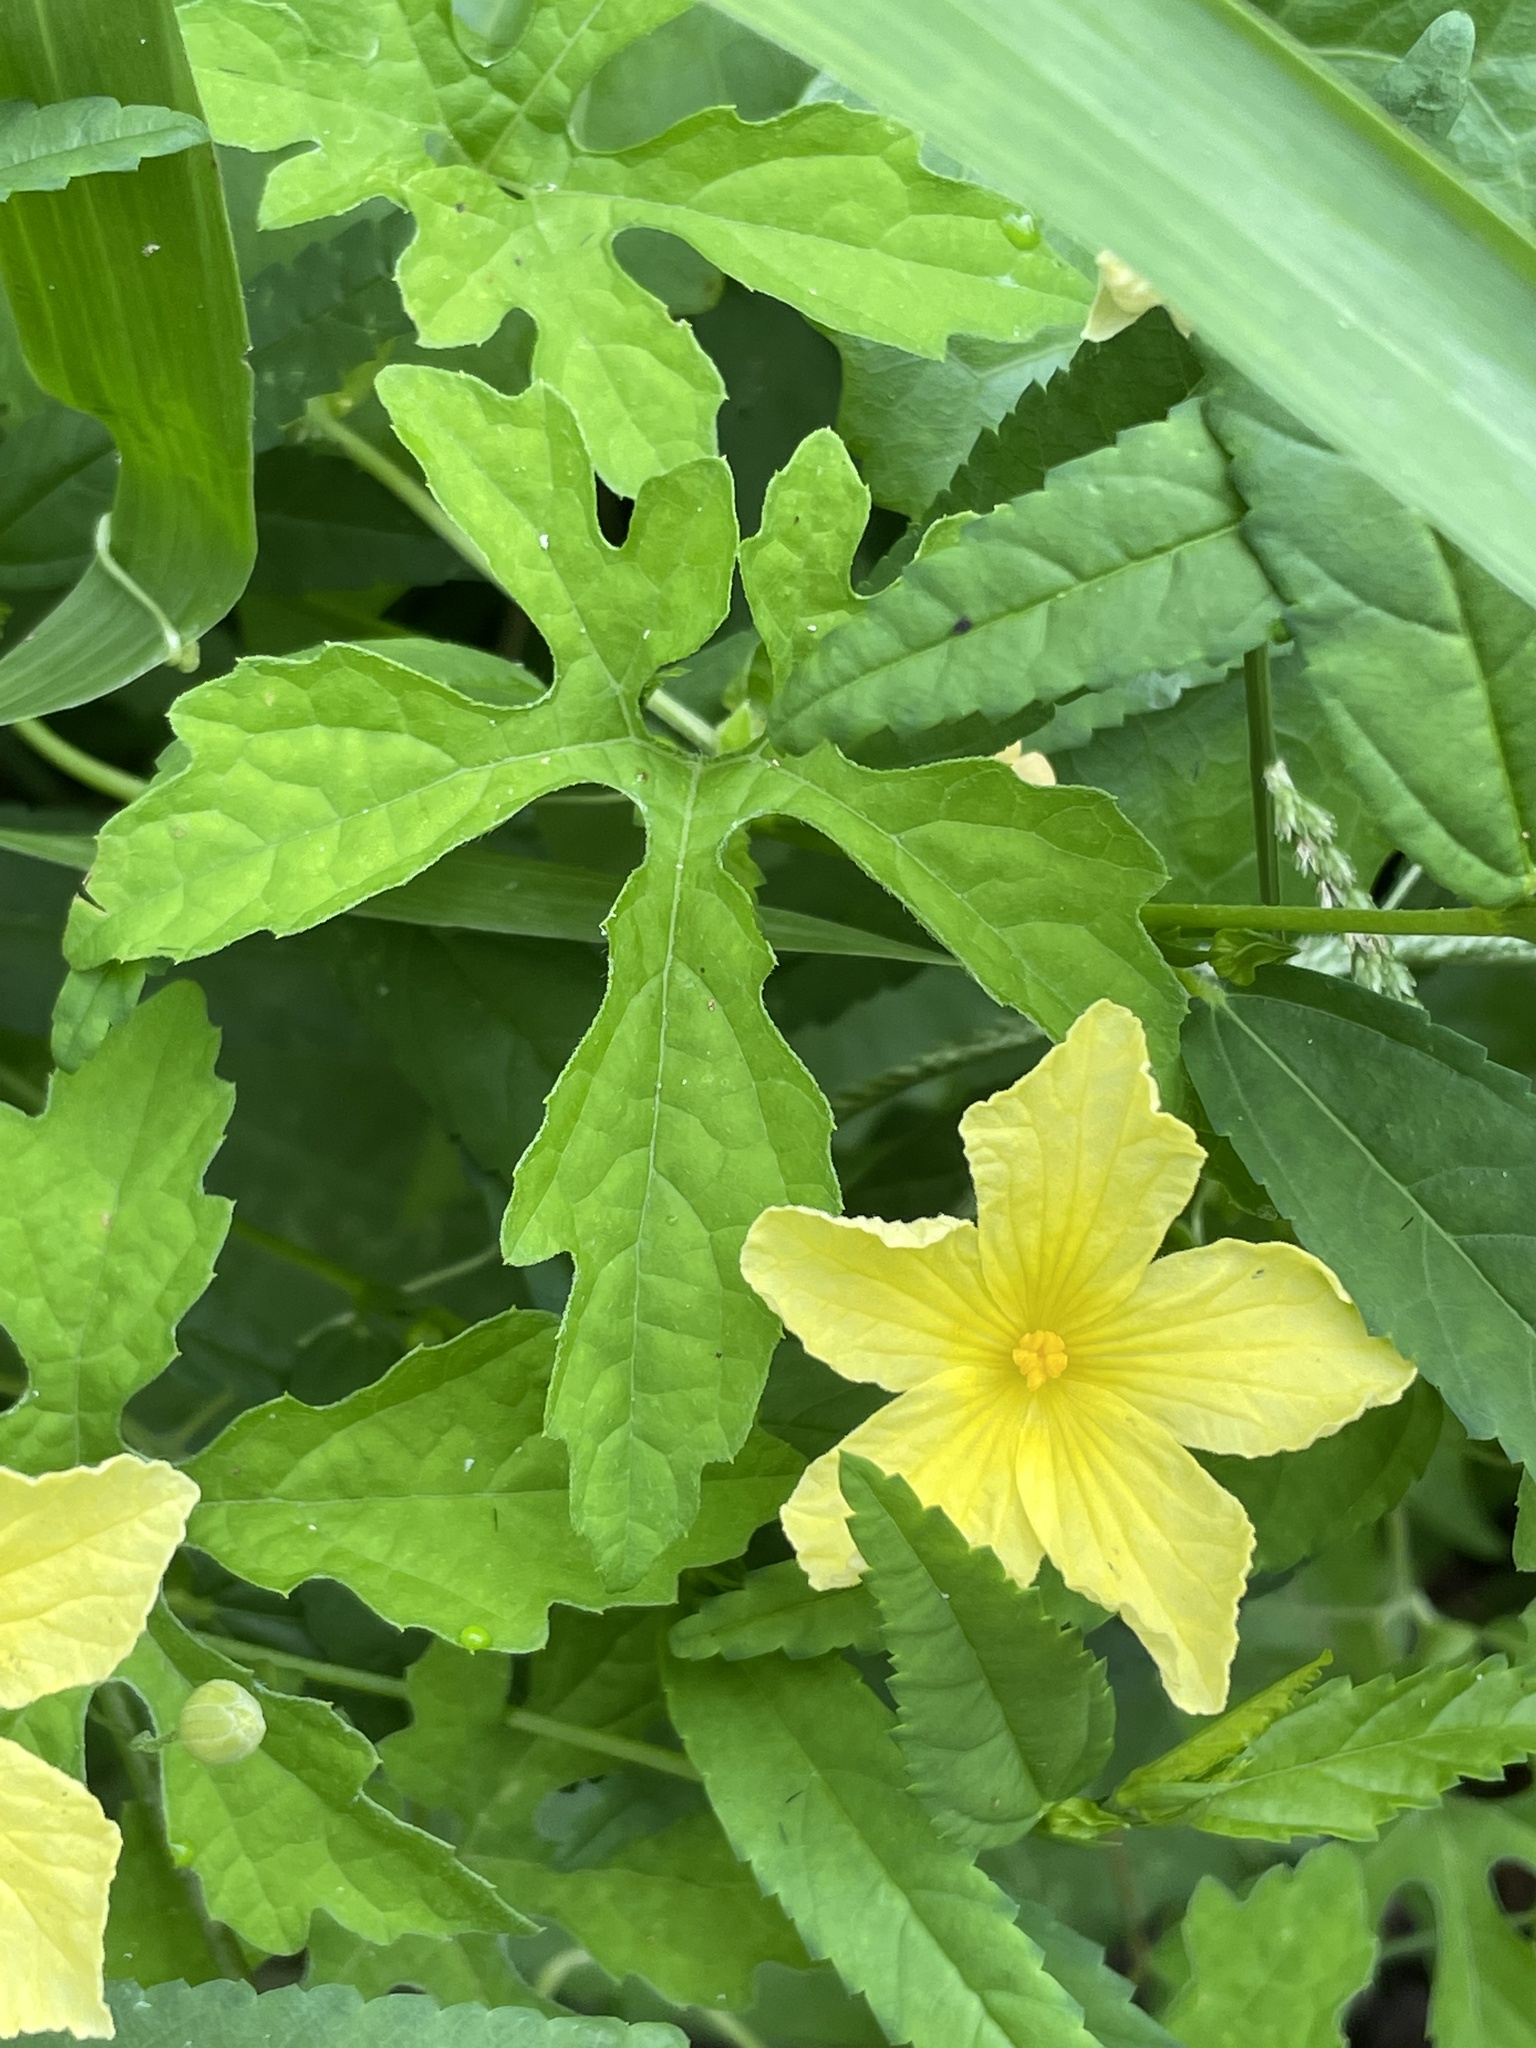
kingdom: Plantae
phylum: Tracheophyta
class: Magnoliopsida
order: Cucurbitales
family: Cucurbitaceae
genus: Momordica
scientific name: Momordica charantia
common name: Balsampear
